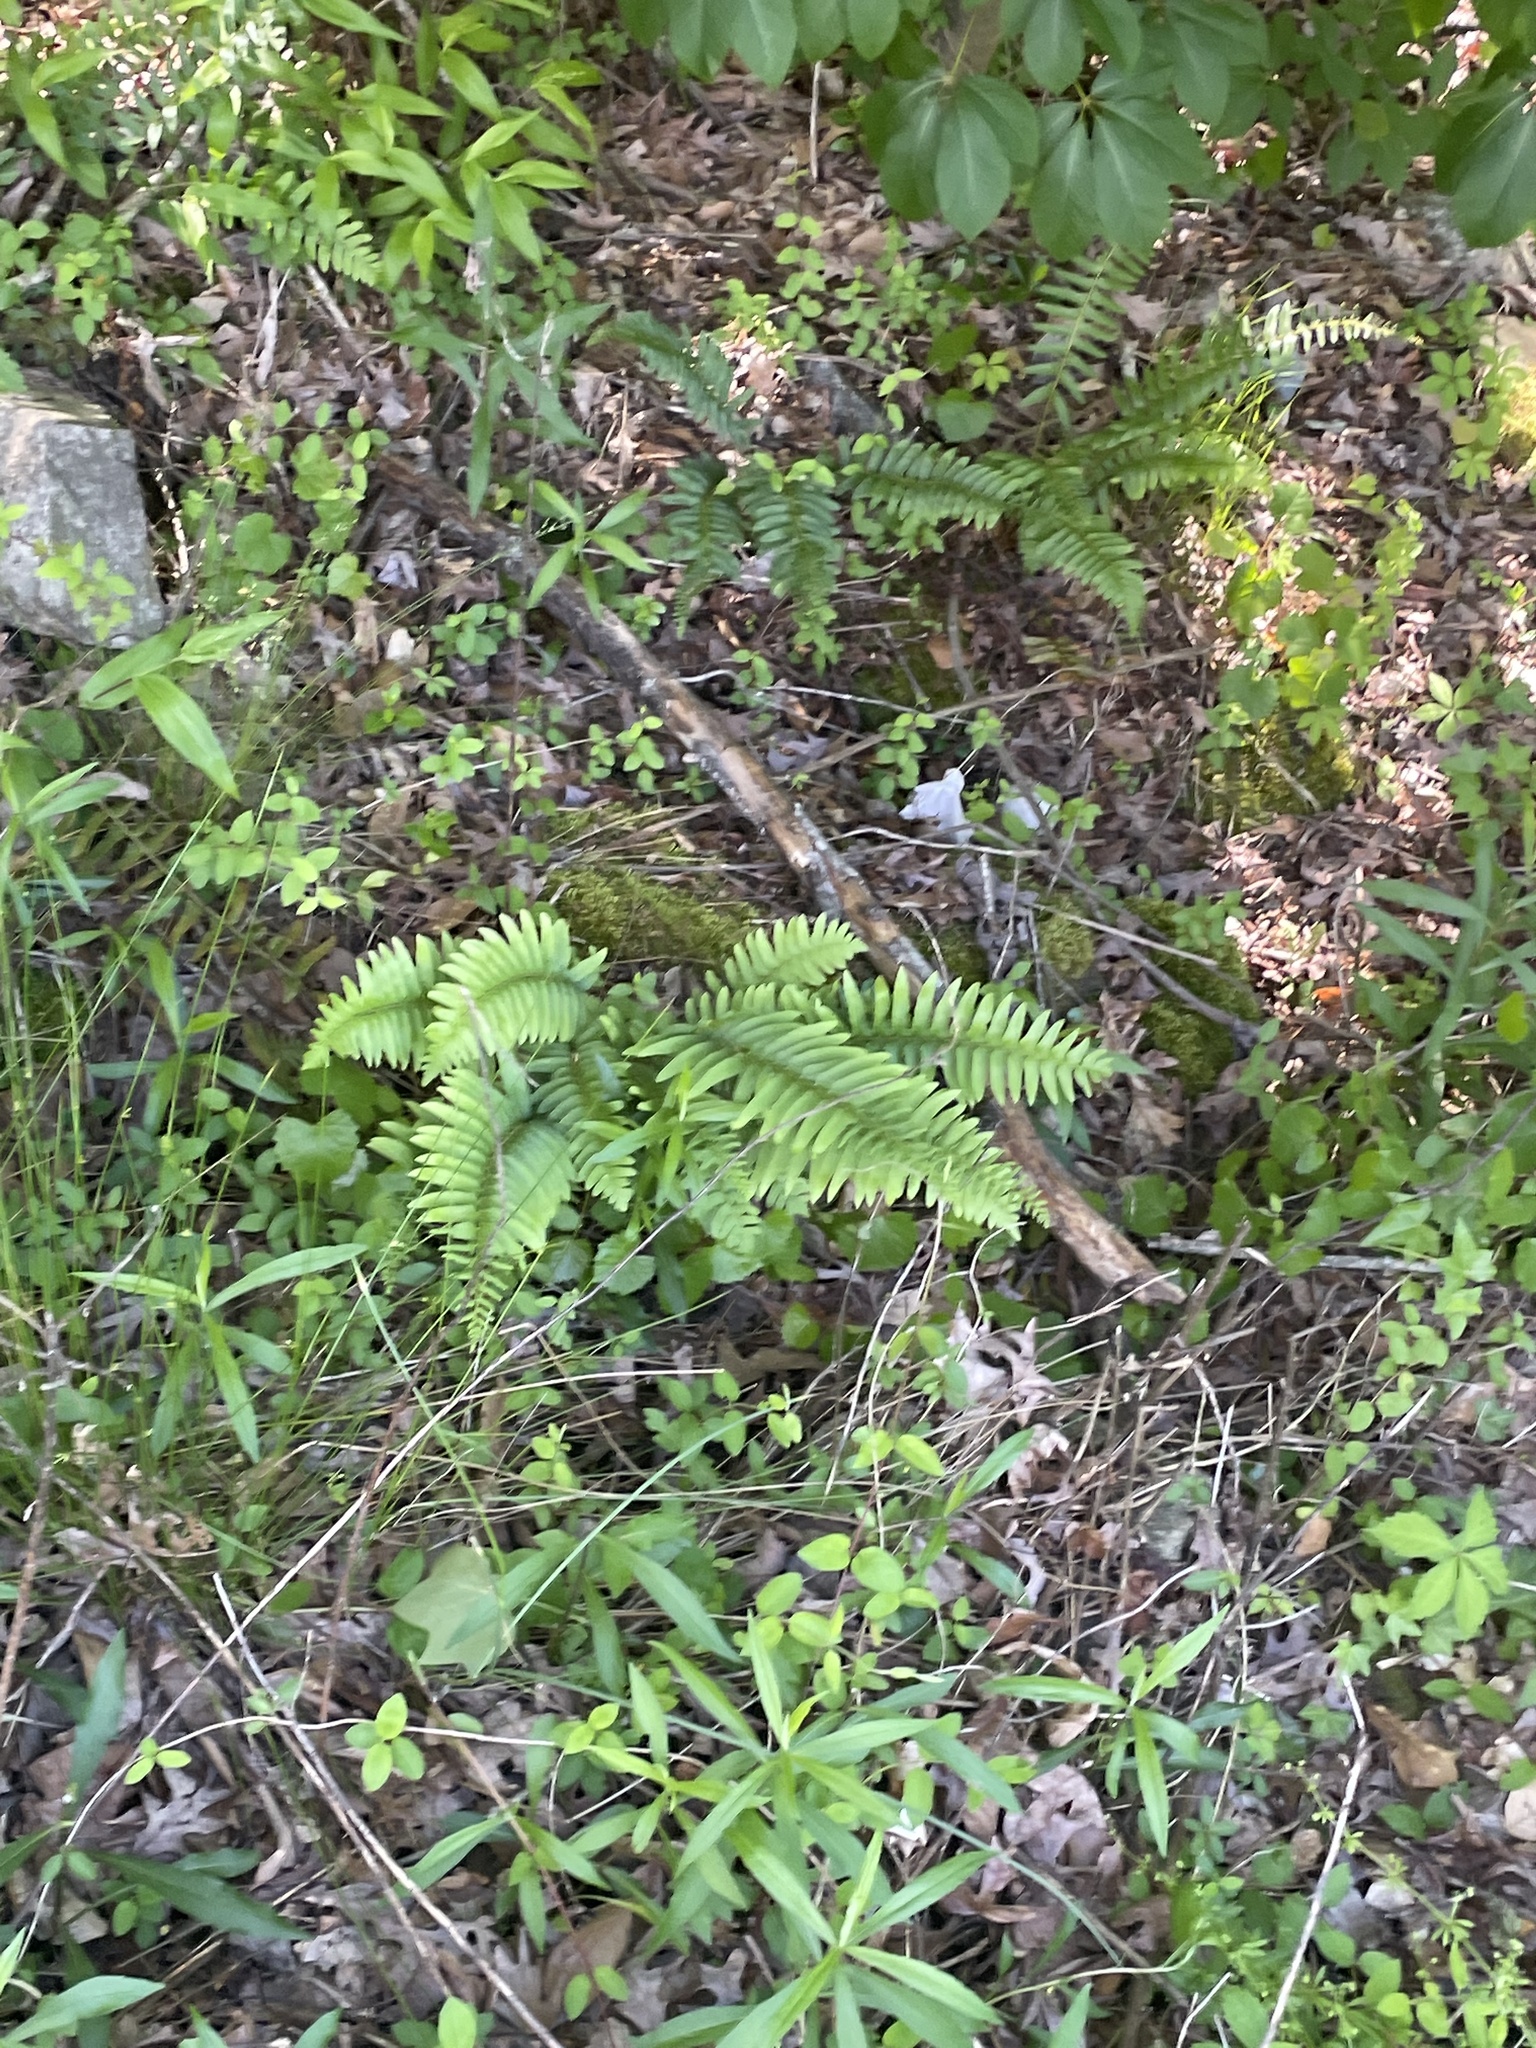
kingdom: Plantae
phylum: Tracheophyta
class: Polypodiopsida
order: Polypodiales
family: Dryopteridaceae
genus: Polystichum
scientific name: Polystichum acrostichoides
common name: Christmas fern
